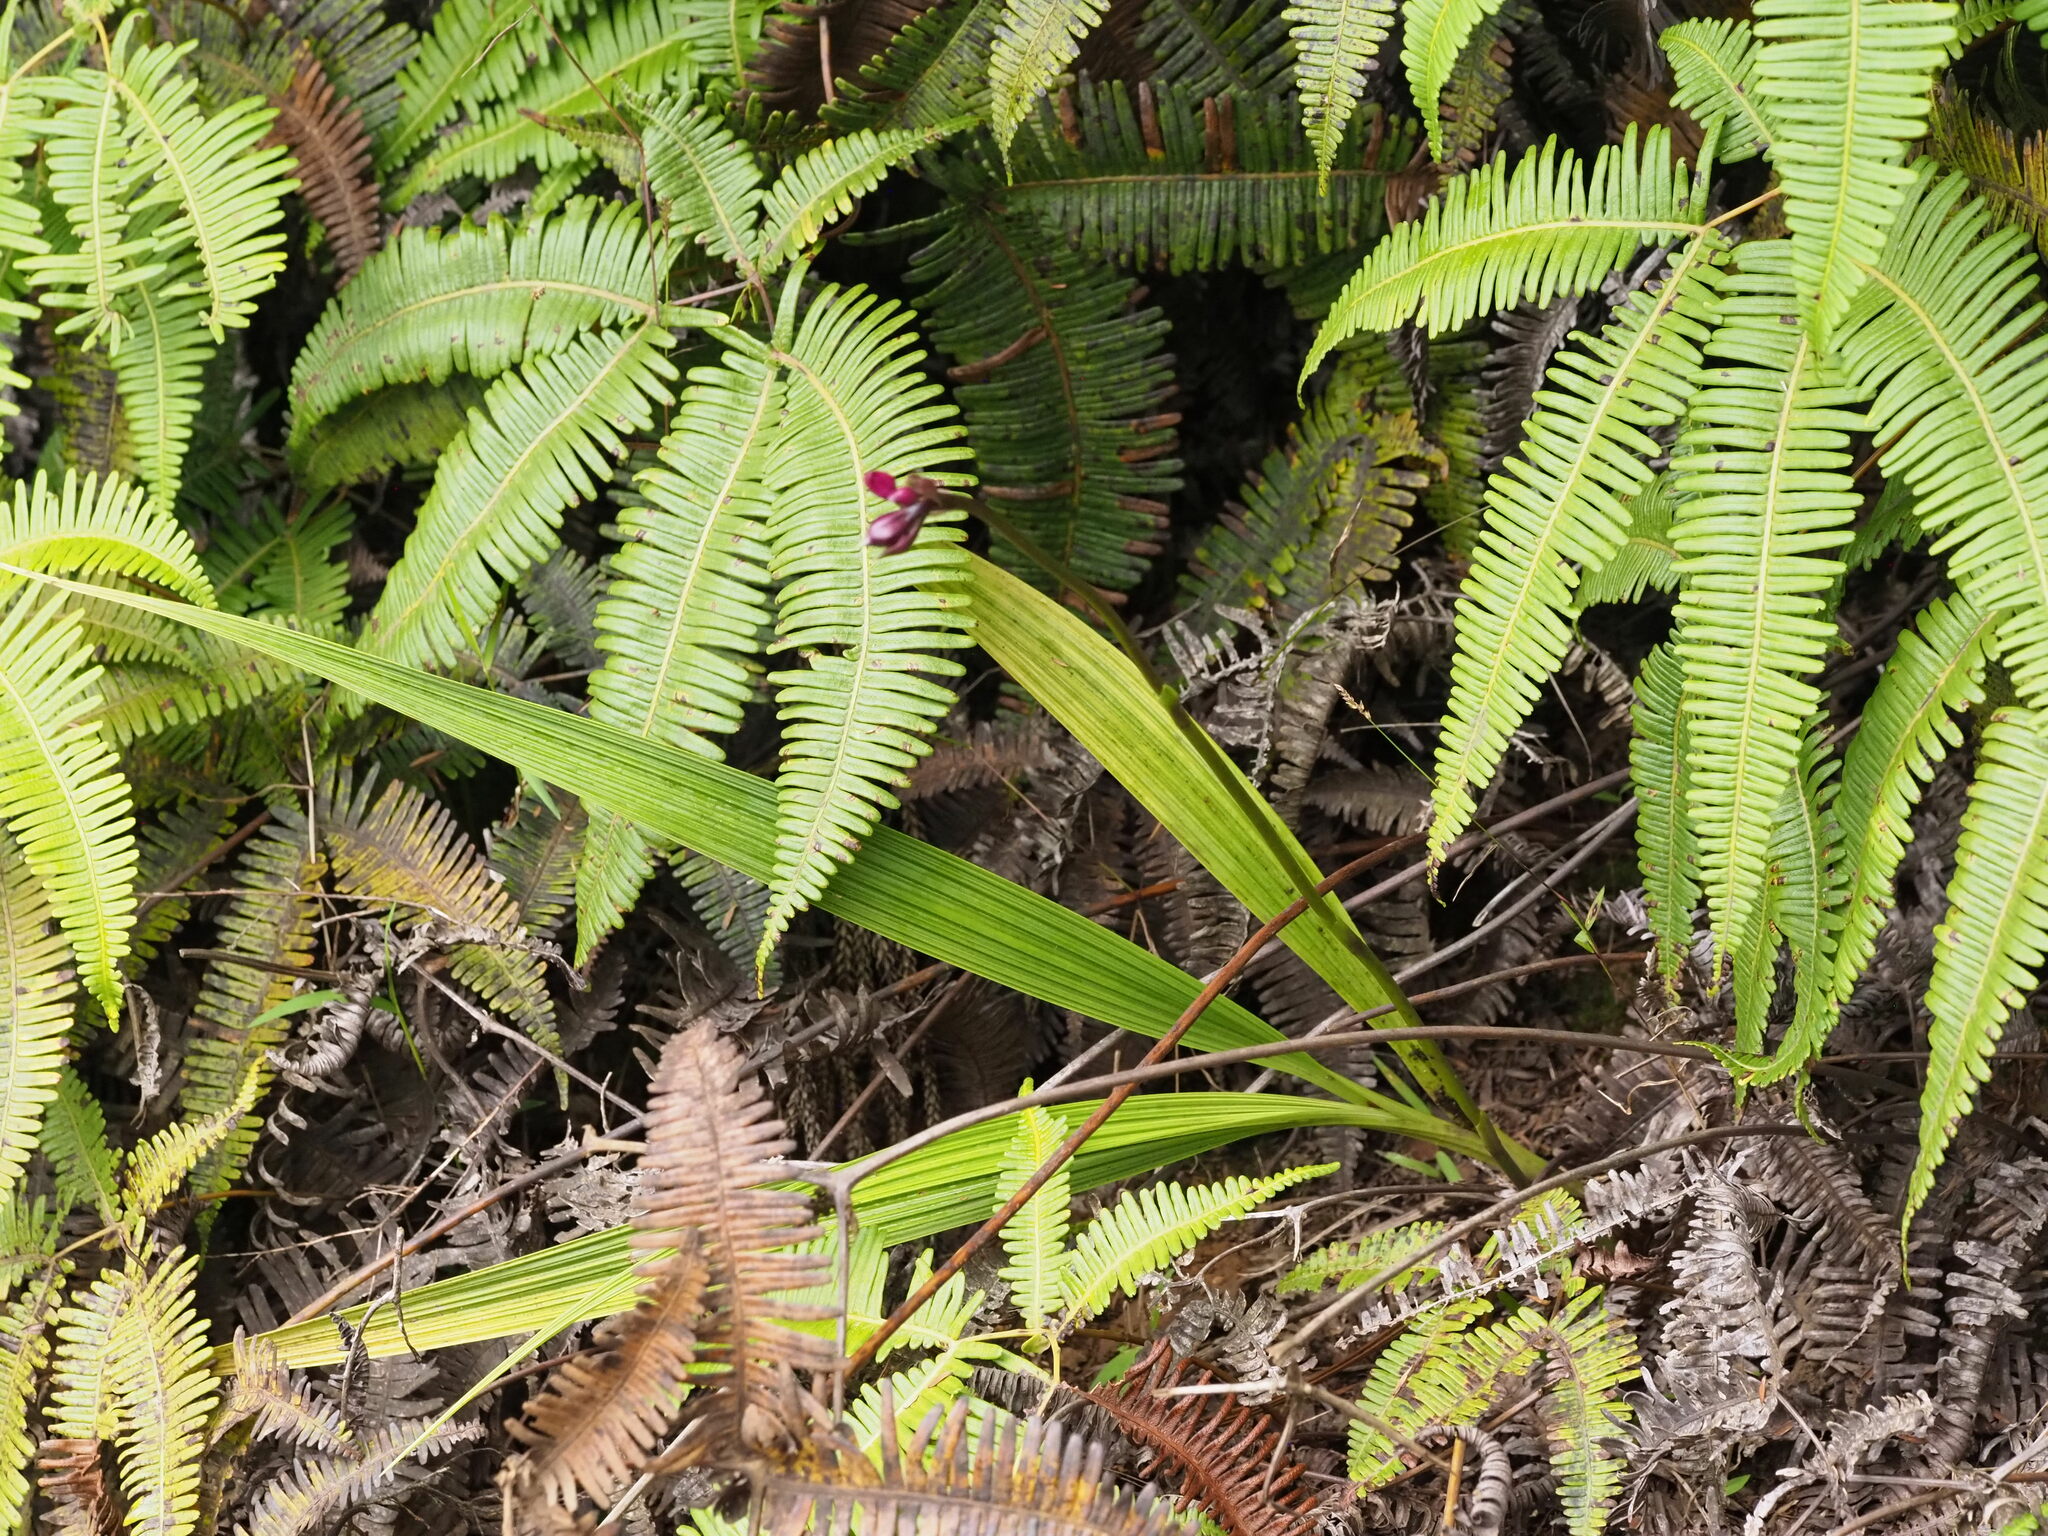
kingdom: Plantae
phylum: Tracheophyta
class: Liliopsida
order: Asparagales
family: Orchidaceae
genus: Spathoglottis
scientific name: Spathoglottis plicata
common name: Philippine ground orchid
